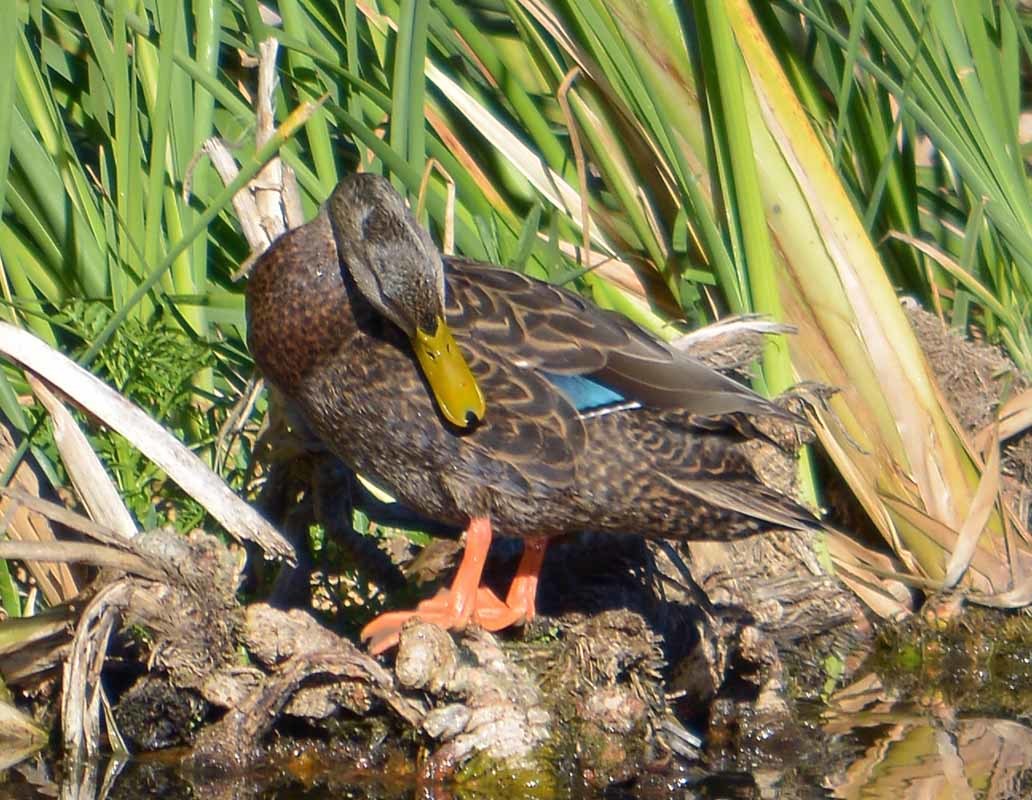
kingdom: Animalia
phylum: Chordata
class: Aves
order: Anseriformes
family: Anatidae
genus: Anas
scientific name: Anas diazi
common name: Mexican duck
